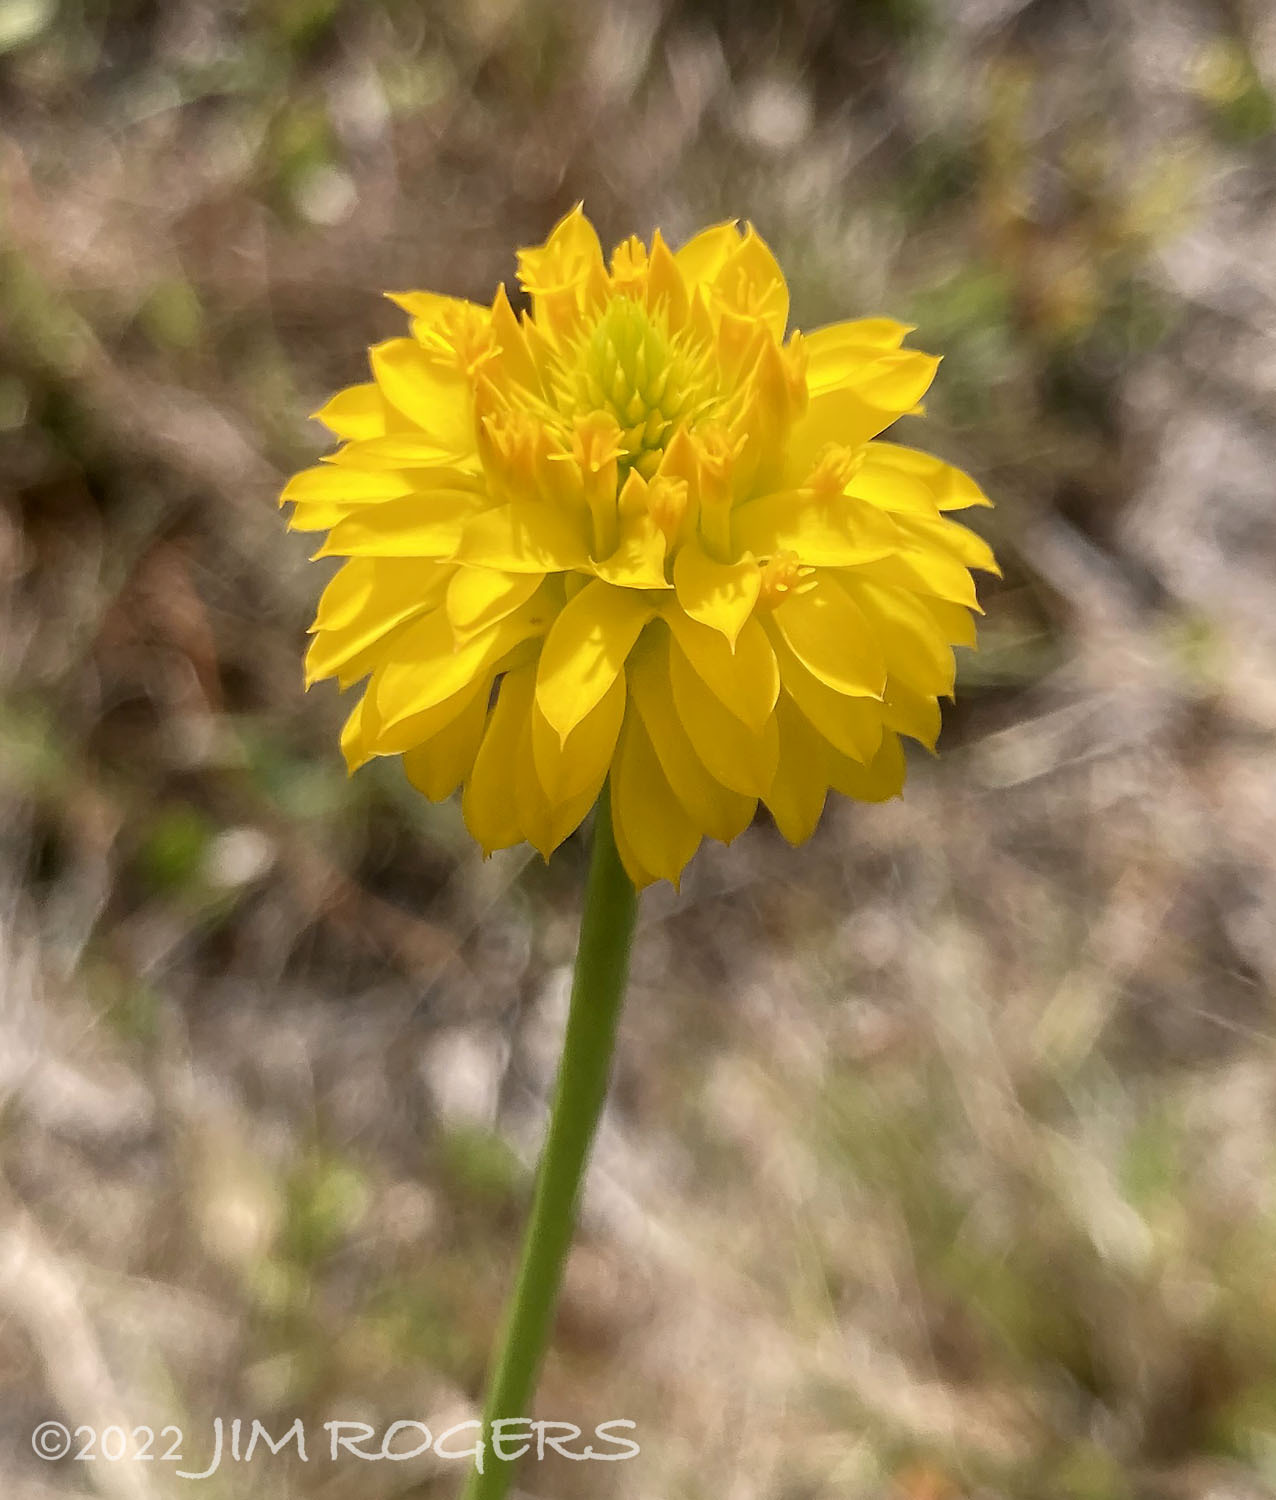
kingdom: Plantae
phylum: Tracheophyta
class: Magnoliopsida
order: Fabales
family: Polygalaceae
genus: Polygala
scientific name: Polygala rugelii
